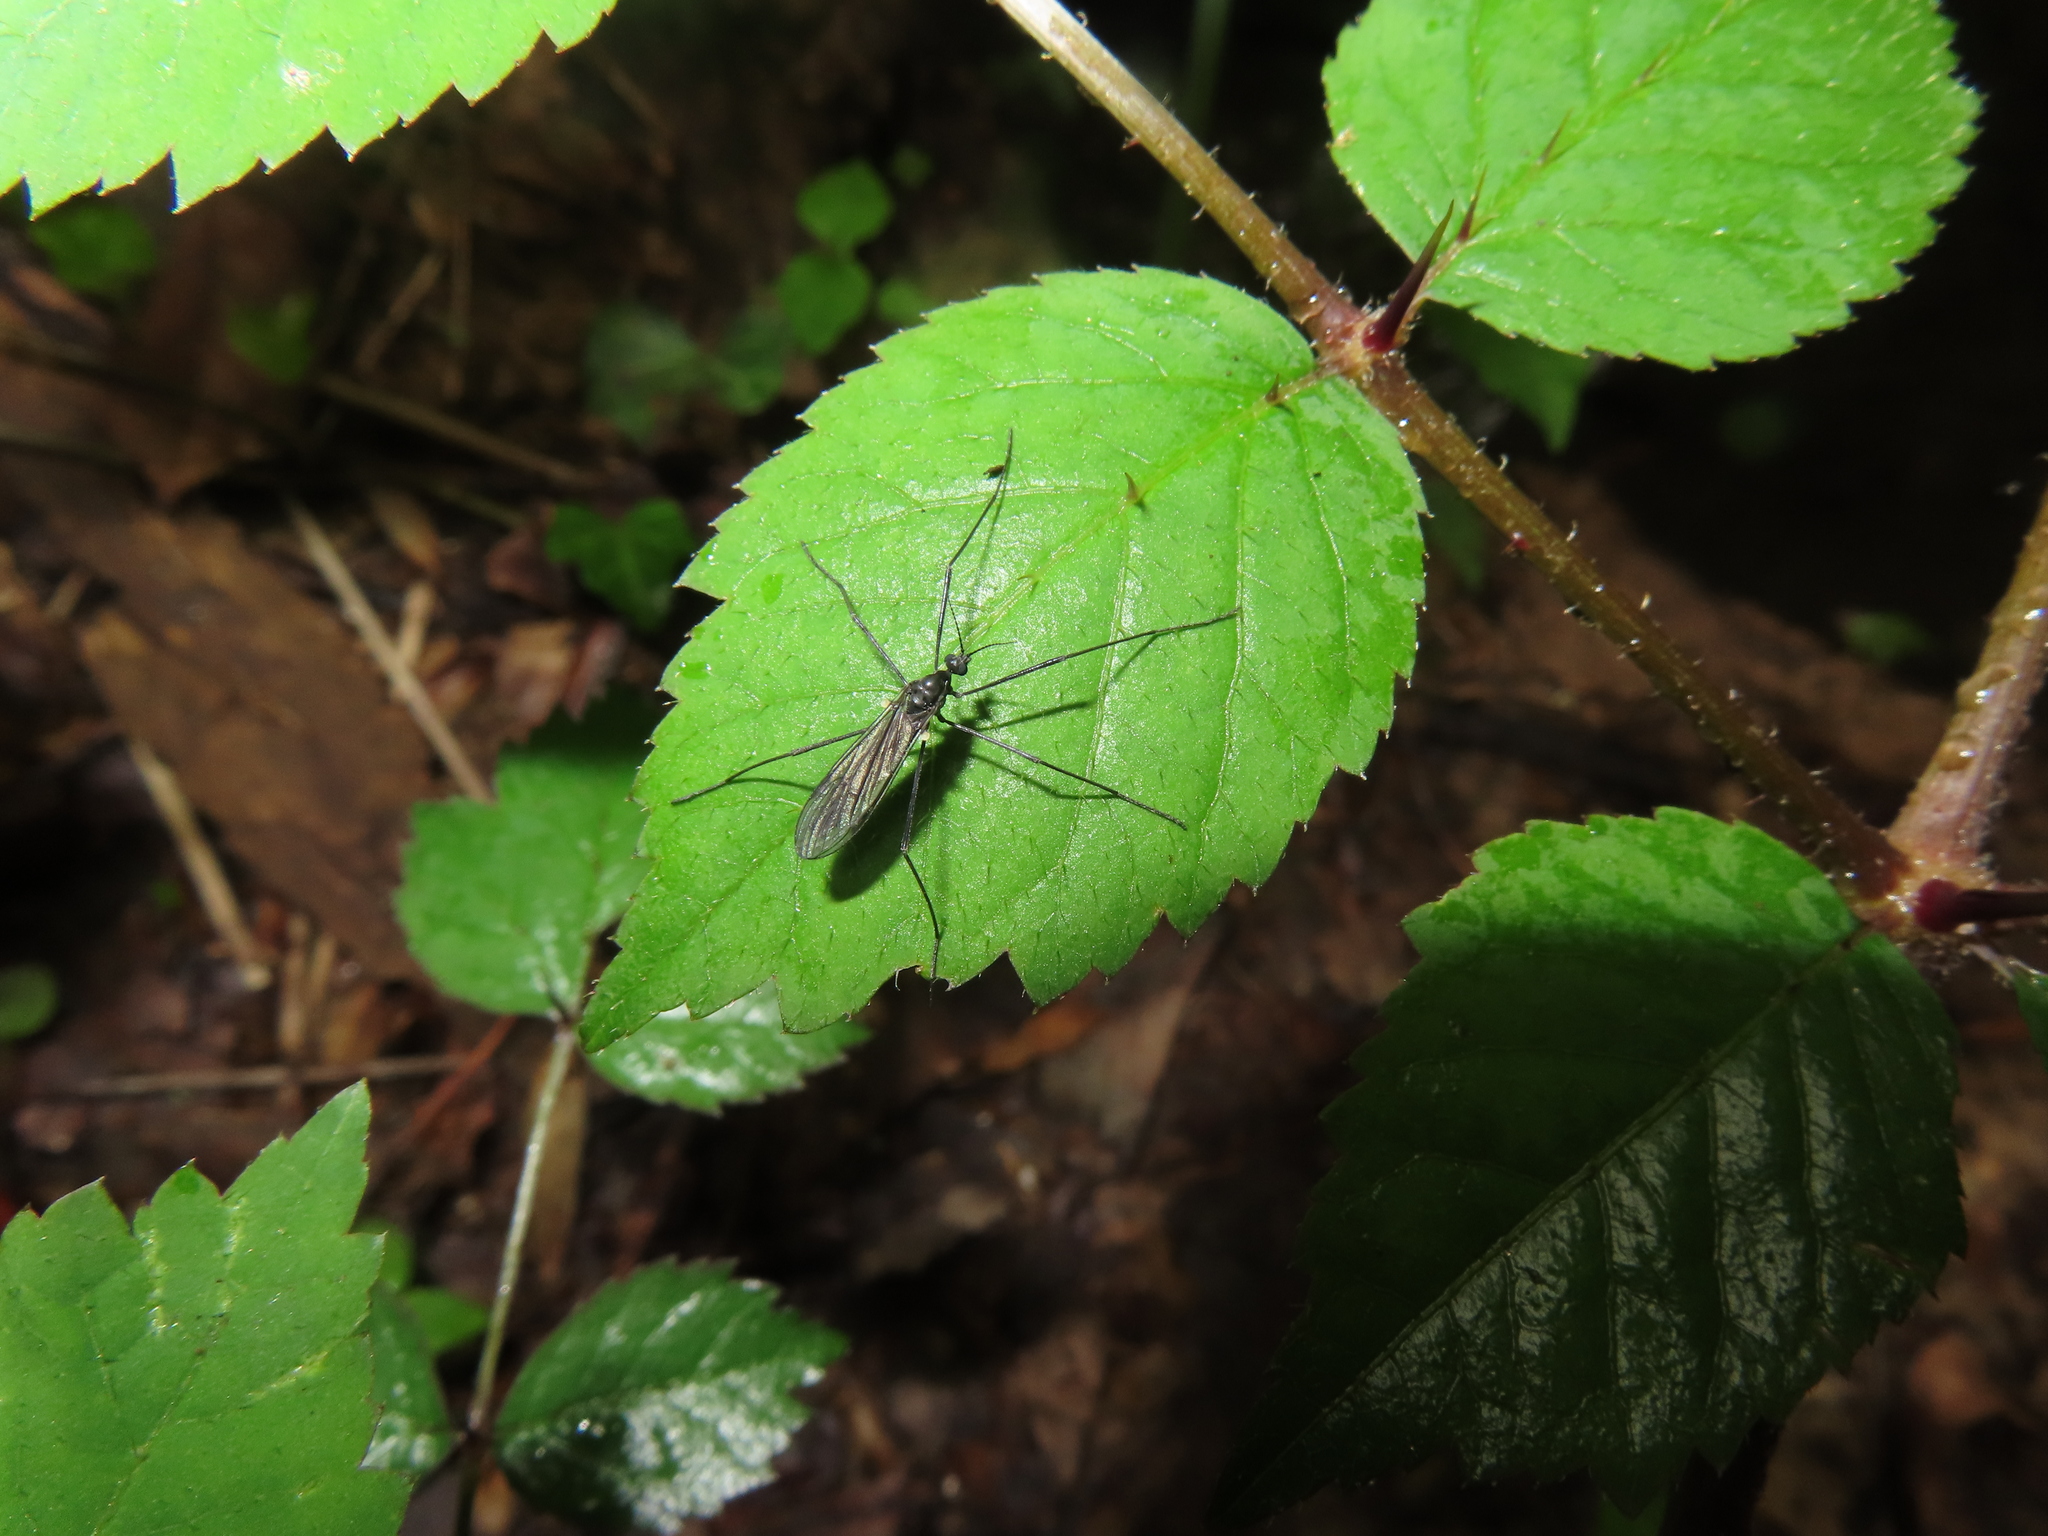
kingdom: Animalia
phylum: Arthropoda
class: Insecta
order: Diptera
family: Limoniidae
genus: Gnophomyia
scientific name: Gnophomyia tristissima
